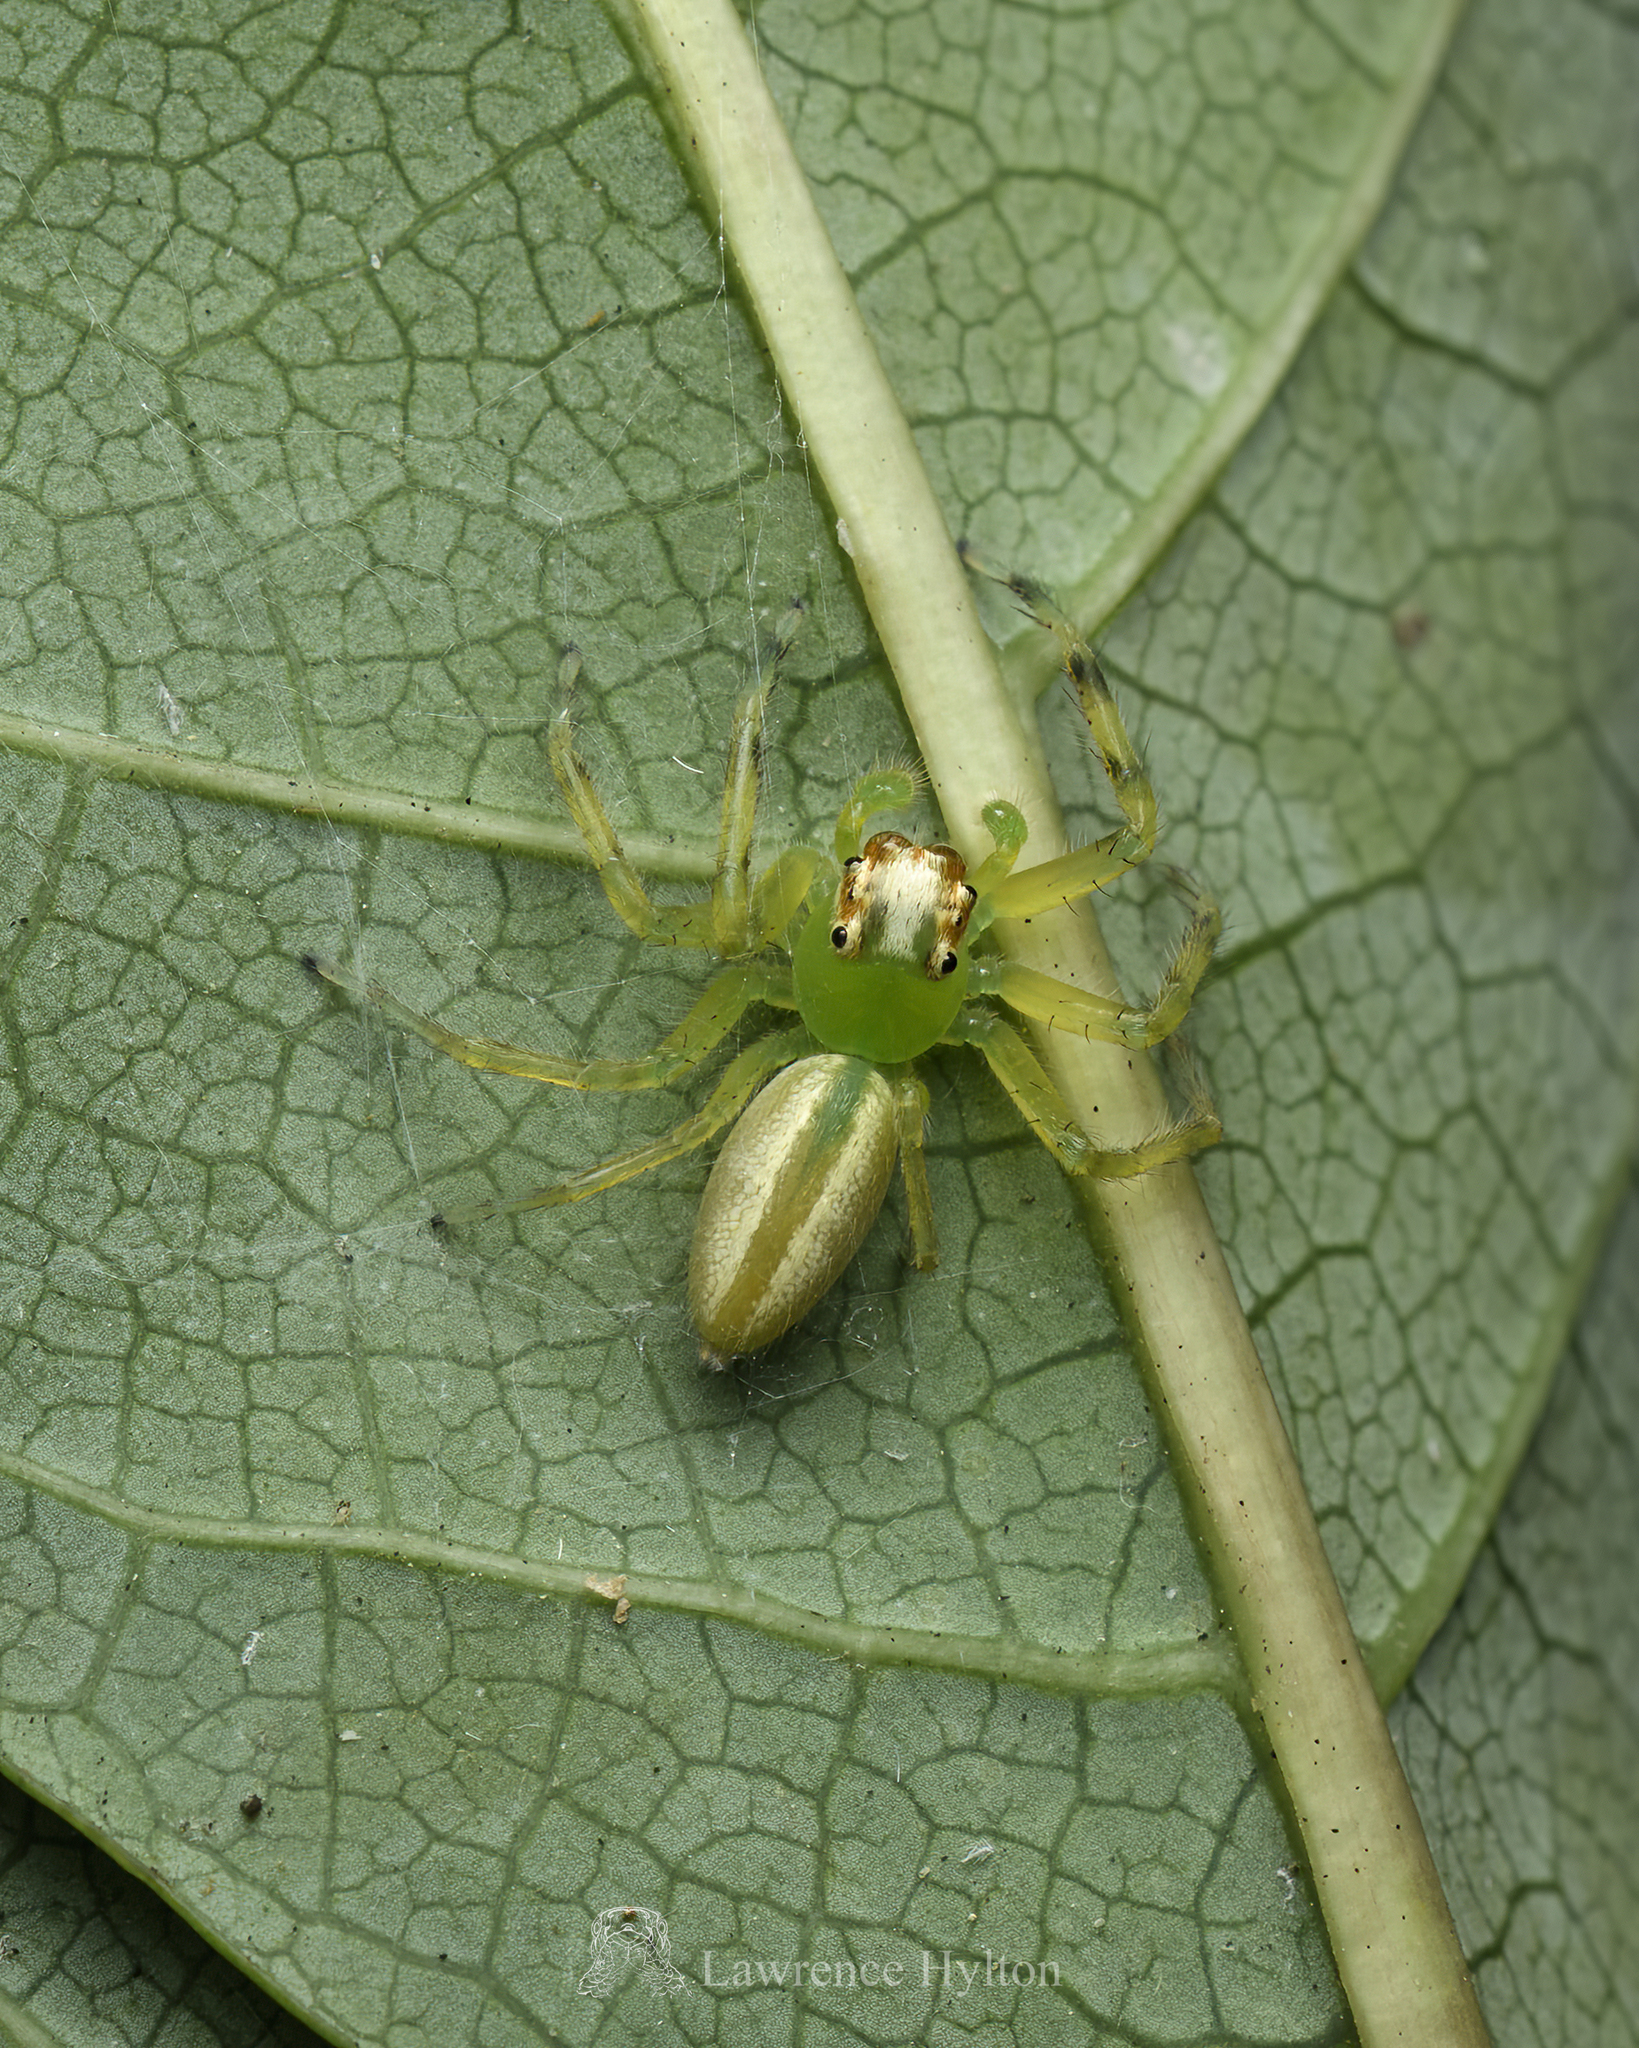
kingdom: Animalia
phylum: Arthropoda
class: Arachnida
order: Araneae
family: Salticidae
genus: Epeus
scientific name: Epeus glorius
